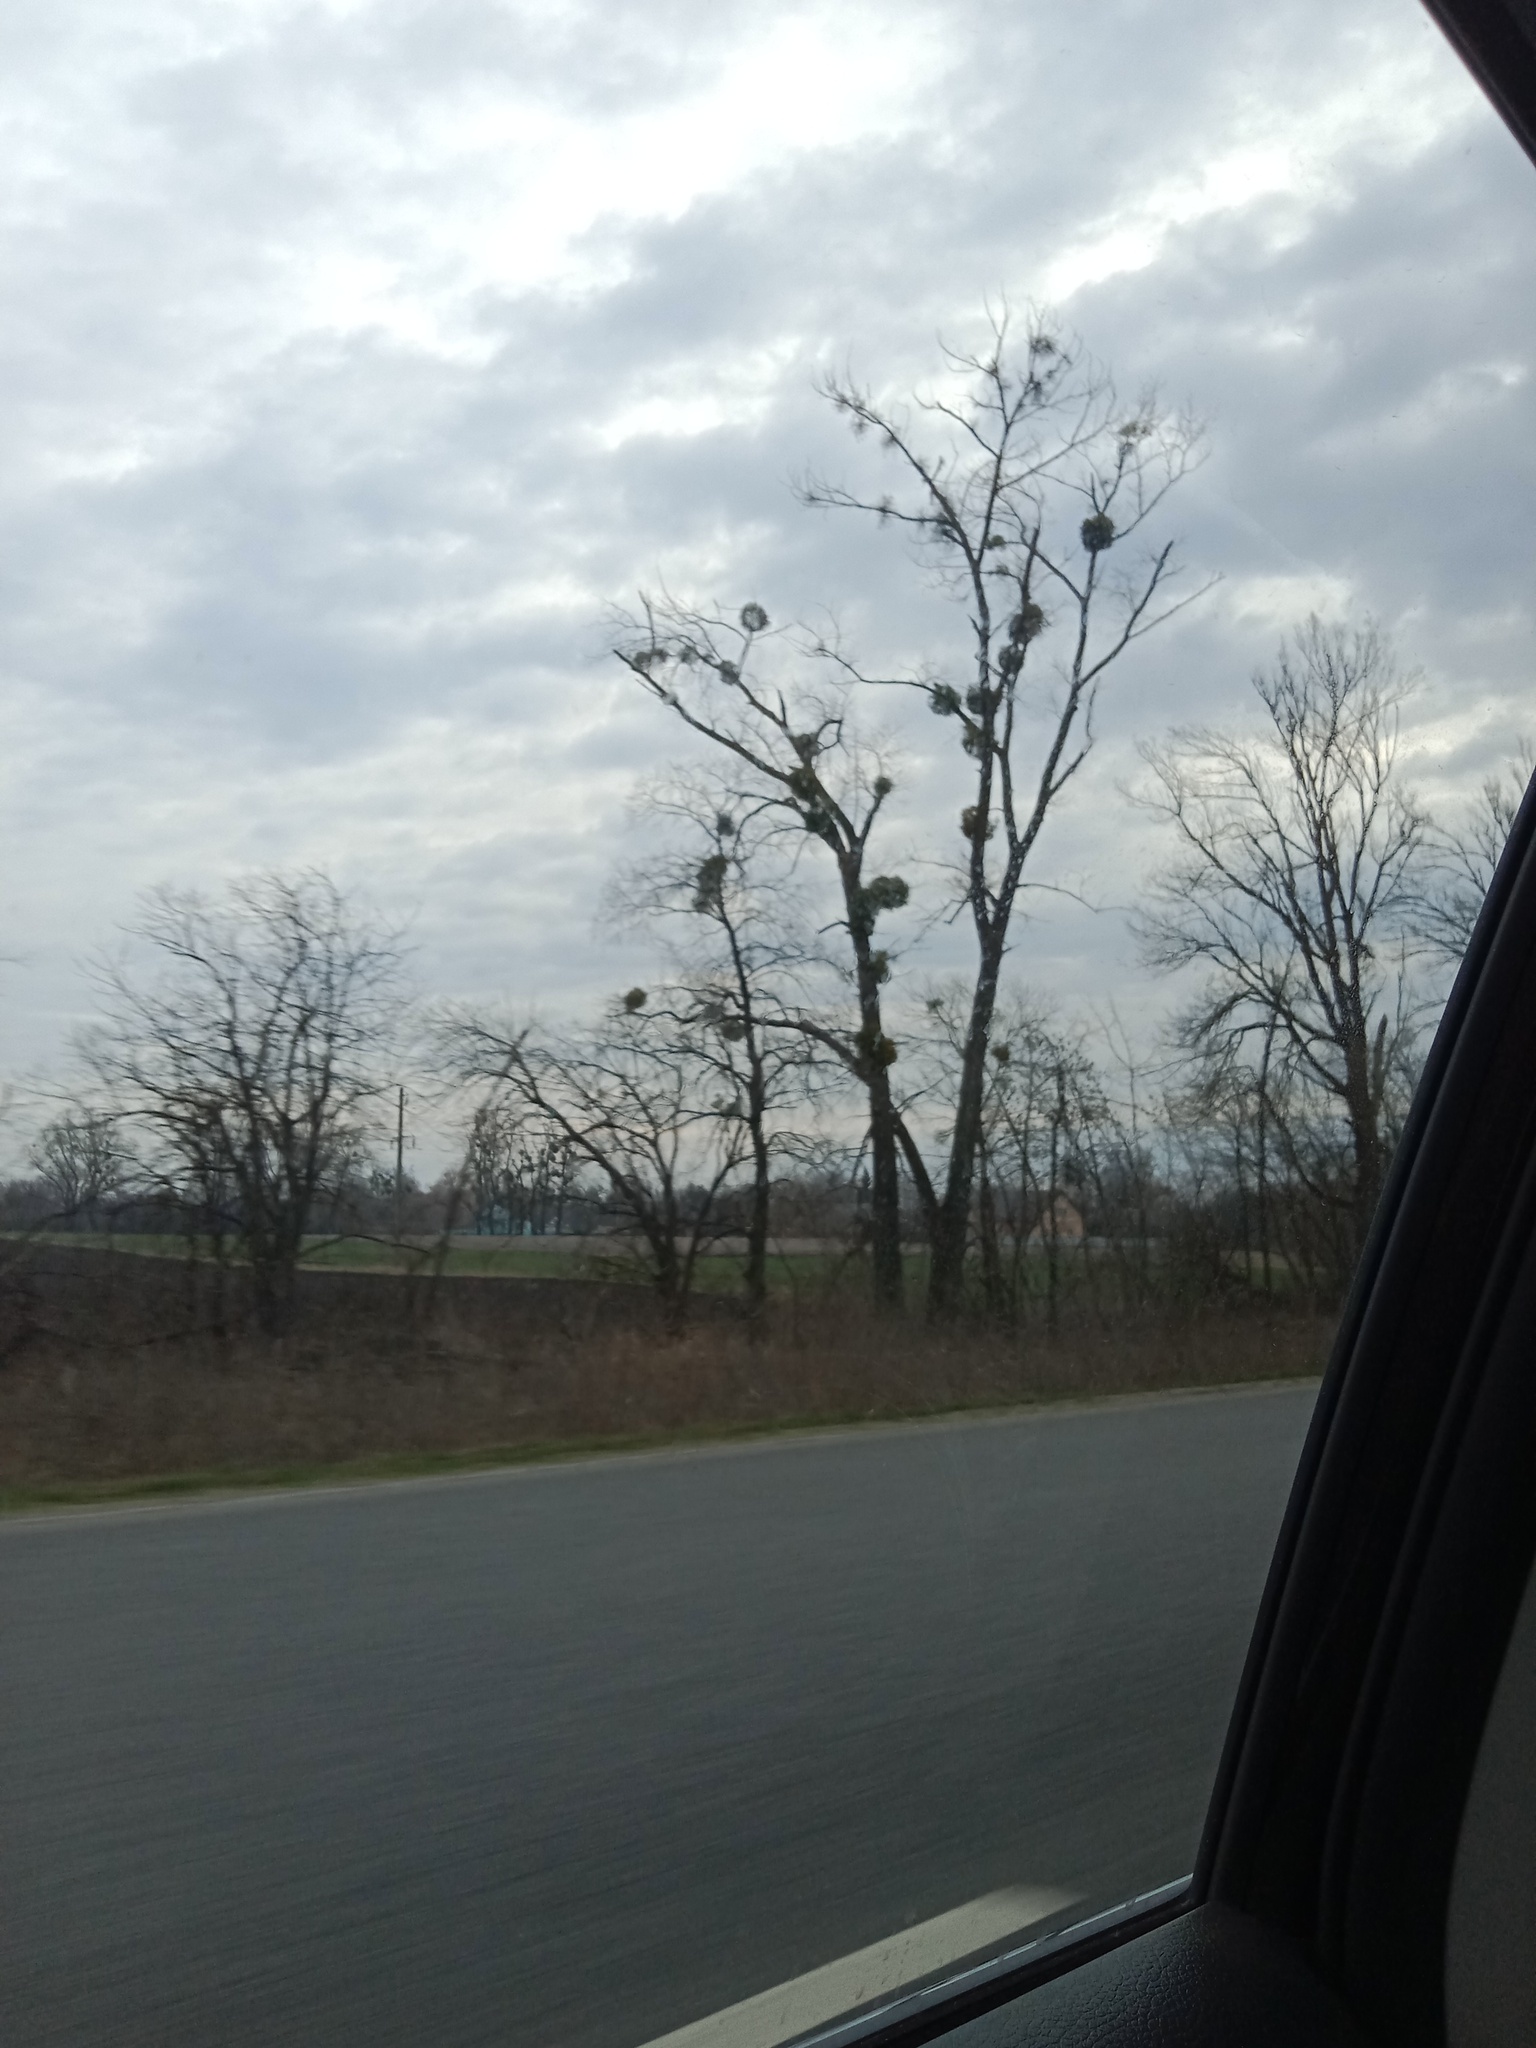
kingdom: Plantae
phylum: Tracheophyta
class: Magnoliopsida
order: Santalales
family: Viscaceae
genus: Viscum
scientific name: Viscum album
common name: Mistletoe
